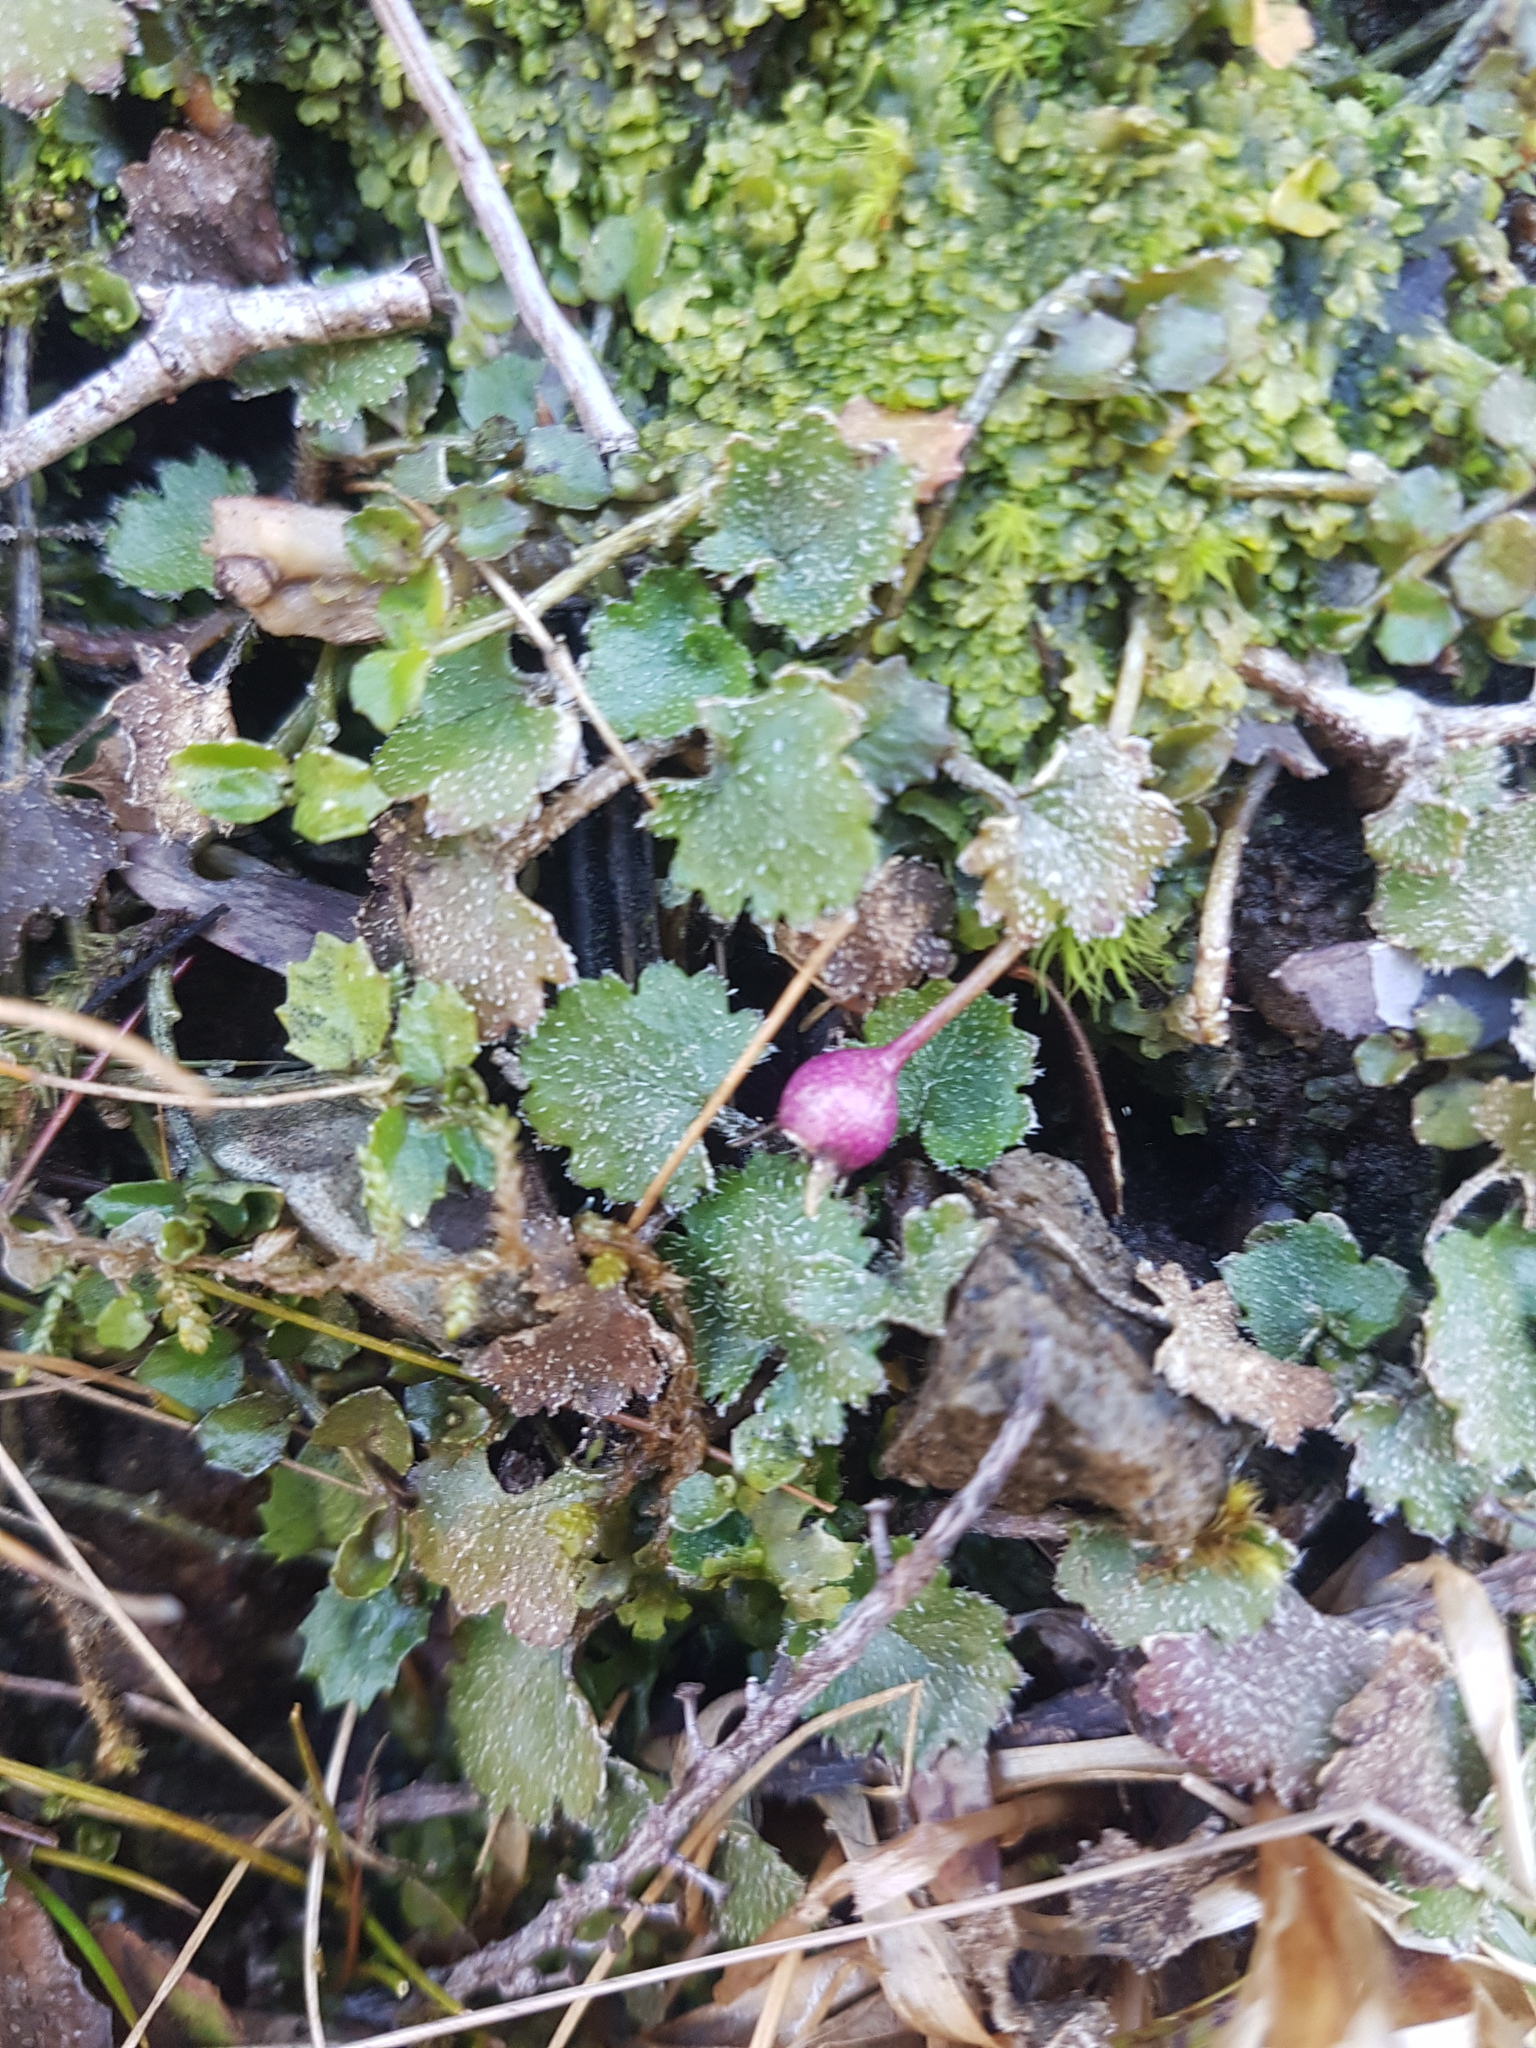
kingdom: Plantae
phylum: Tracheophyta
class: Magnoliopsida
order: Asterales
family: Campanulaceae
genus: Lobelia
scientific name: Lobelia angulata
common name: Lawn lobelia
